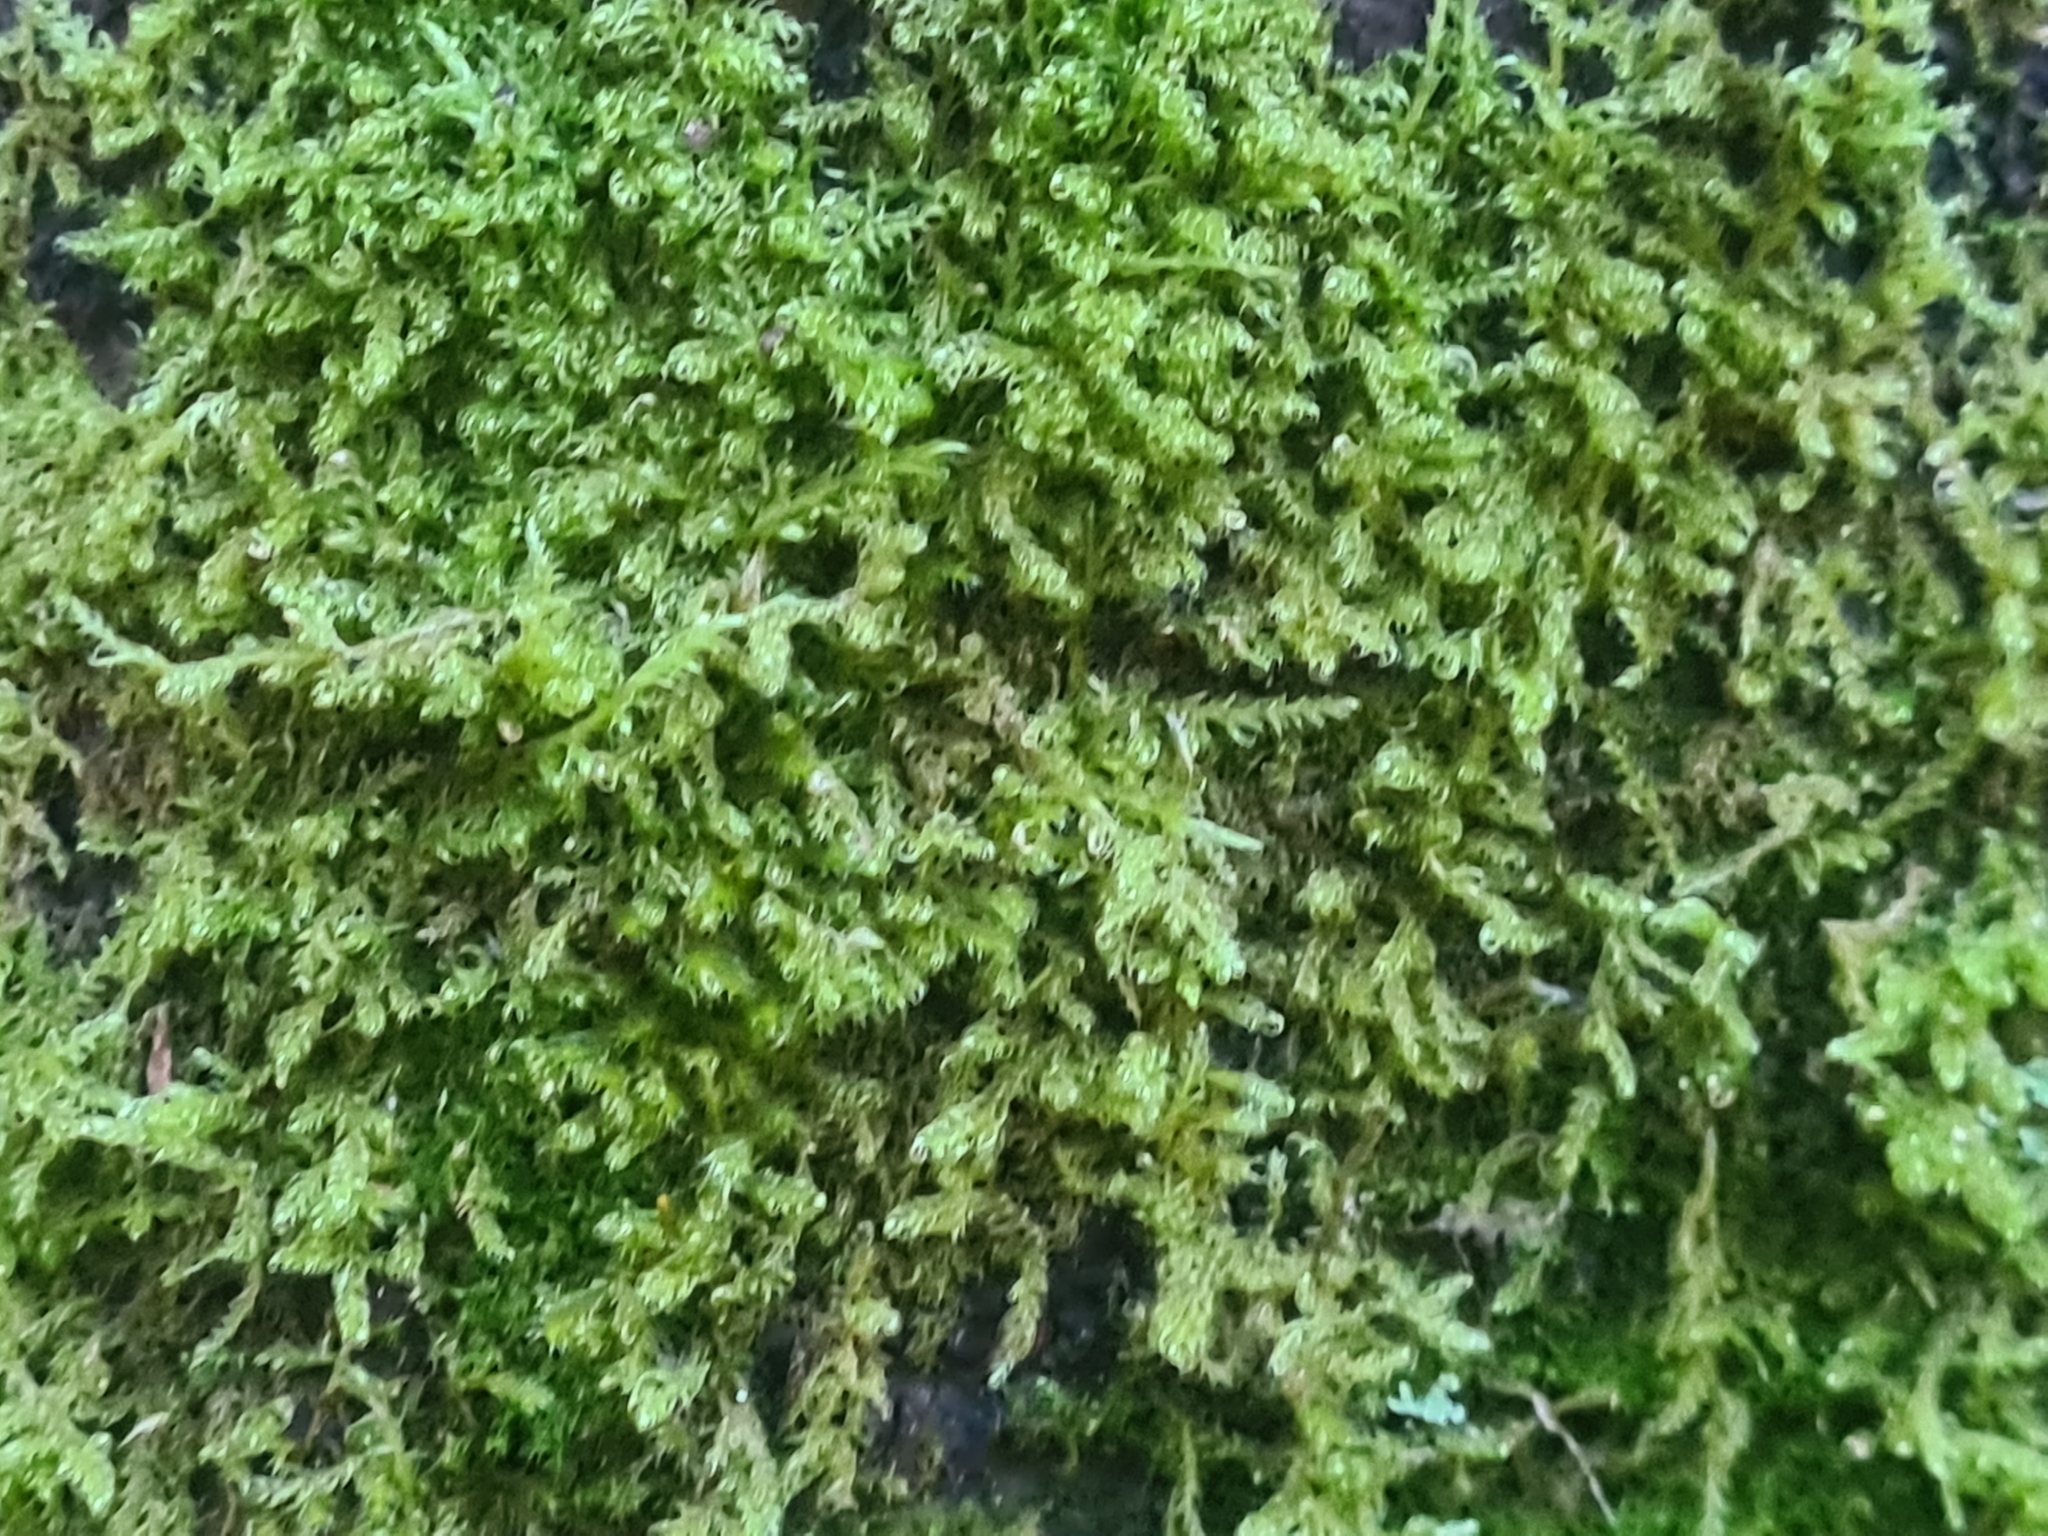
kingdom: Plantae
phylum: Bryophyta
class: Bryopsida
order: Hypnales
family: Scorpidiaceae
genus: Sanionia
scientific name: Sanionia uncinata
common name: Sickle moss
